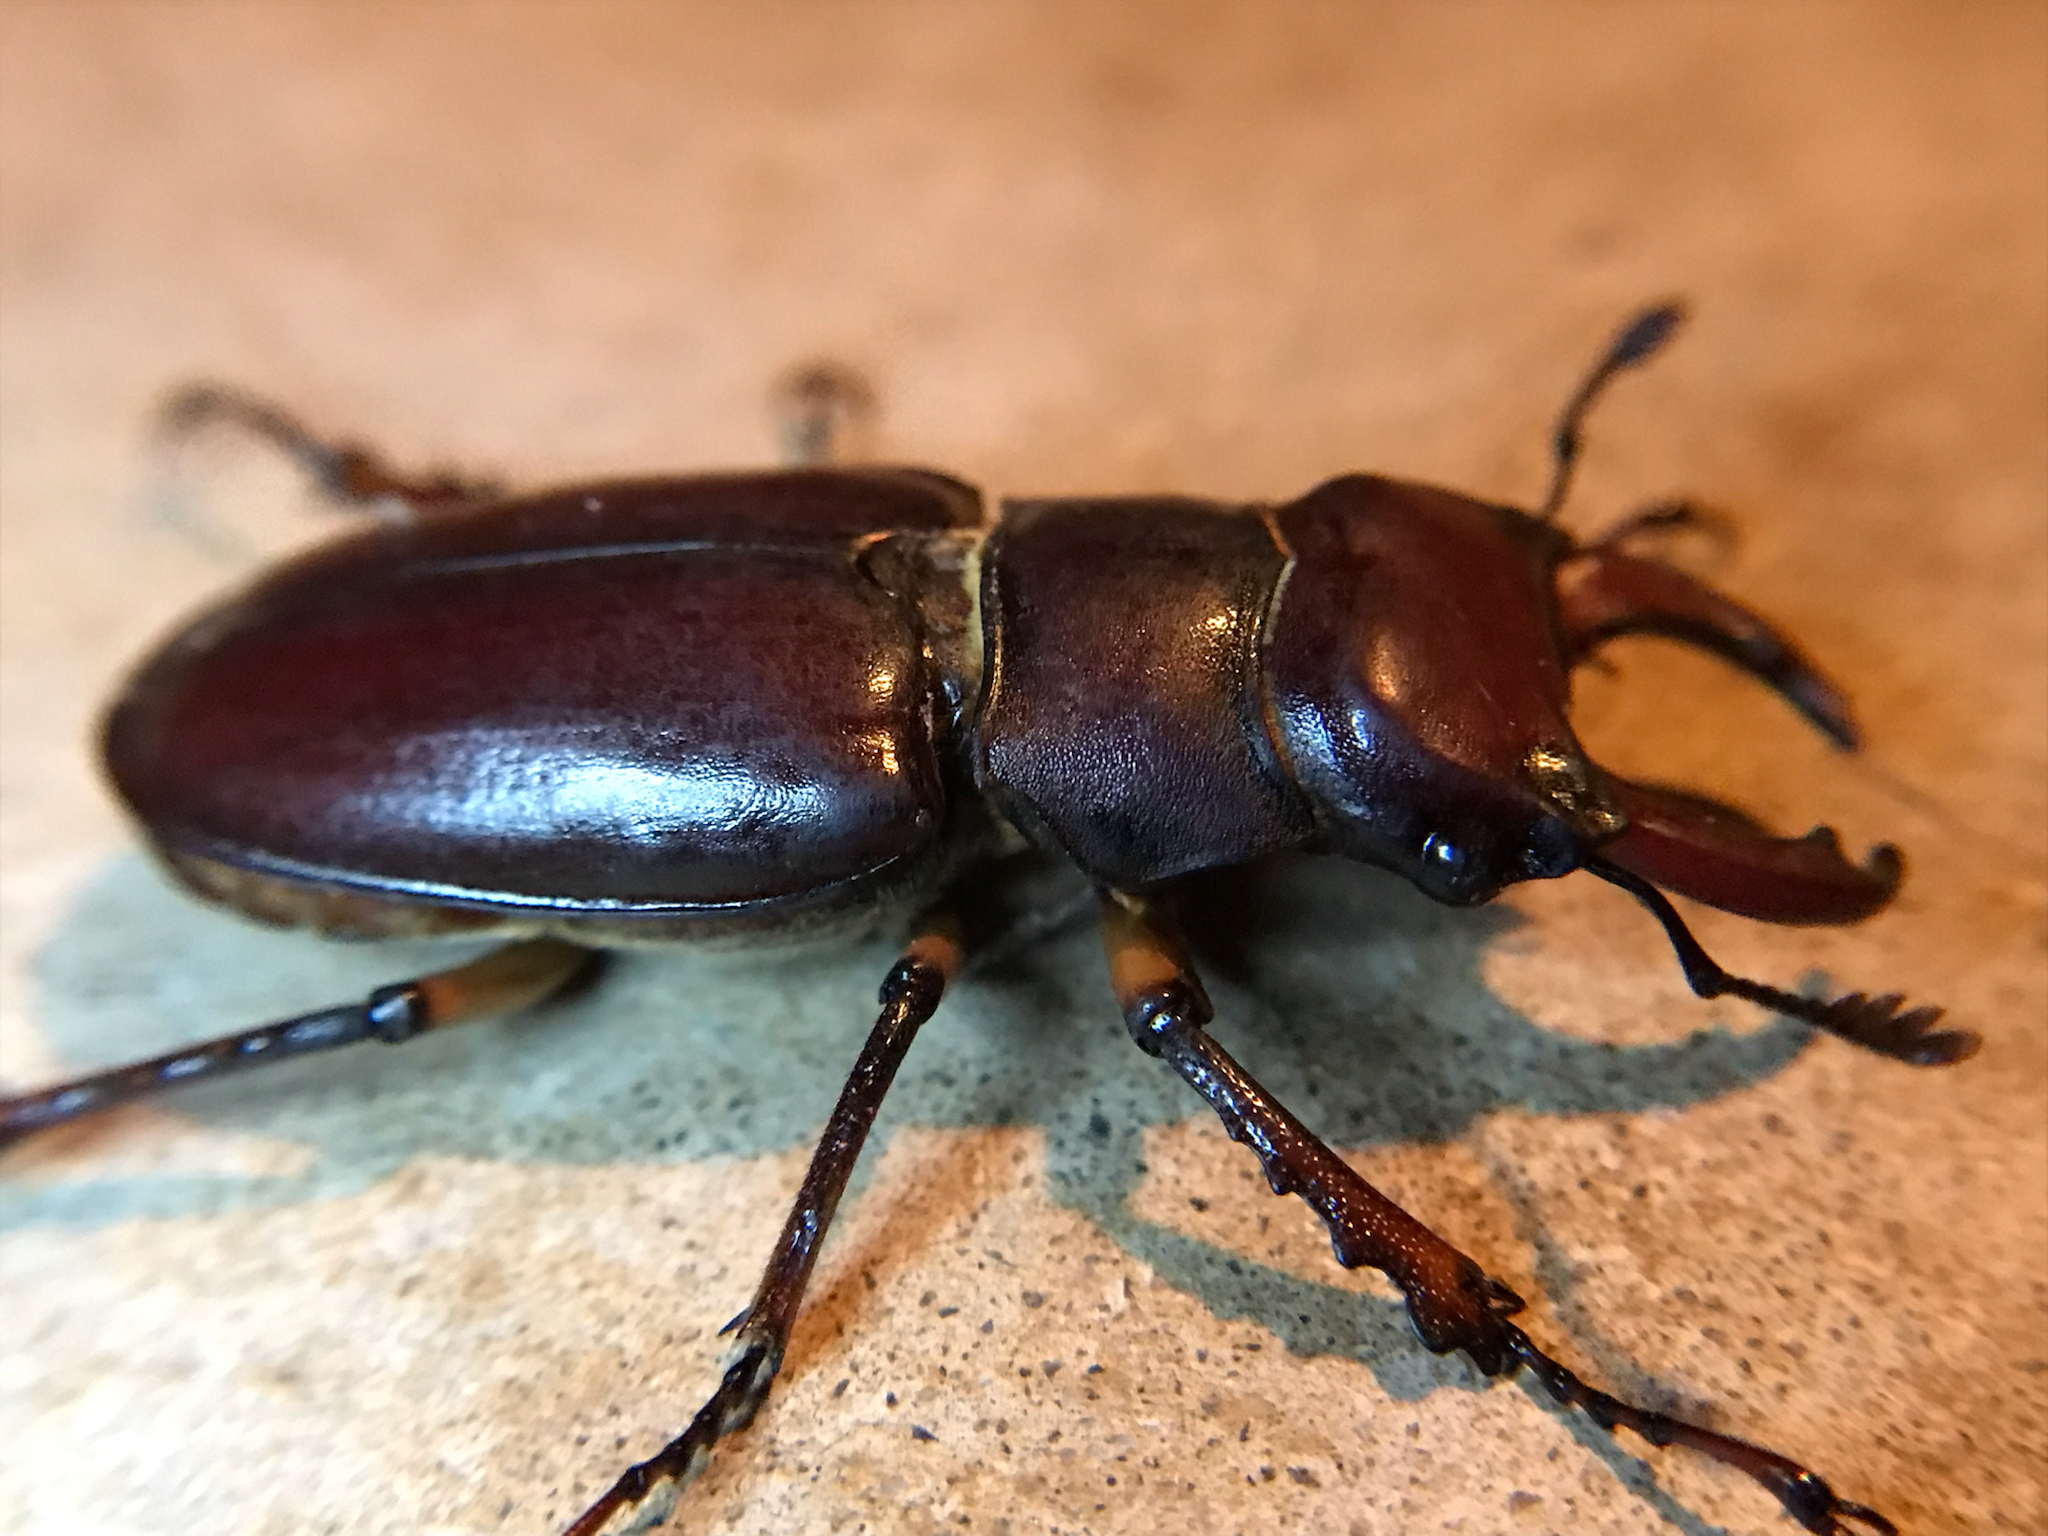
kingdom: Animalia
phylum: Arthropoda
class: Insecta
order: Coleoptera
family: Lucanidae
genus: Lucanus
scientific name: Lucanus capreolus
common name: Stag beetle
